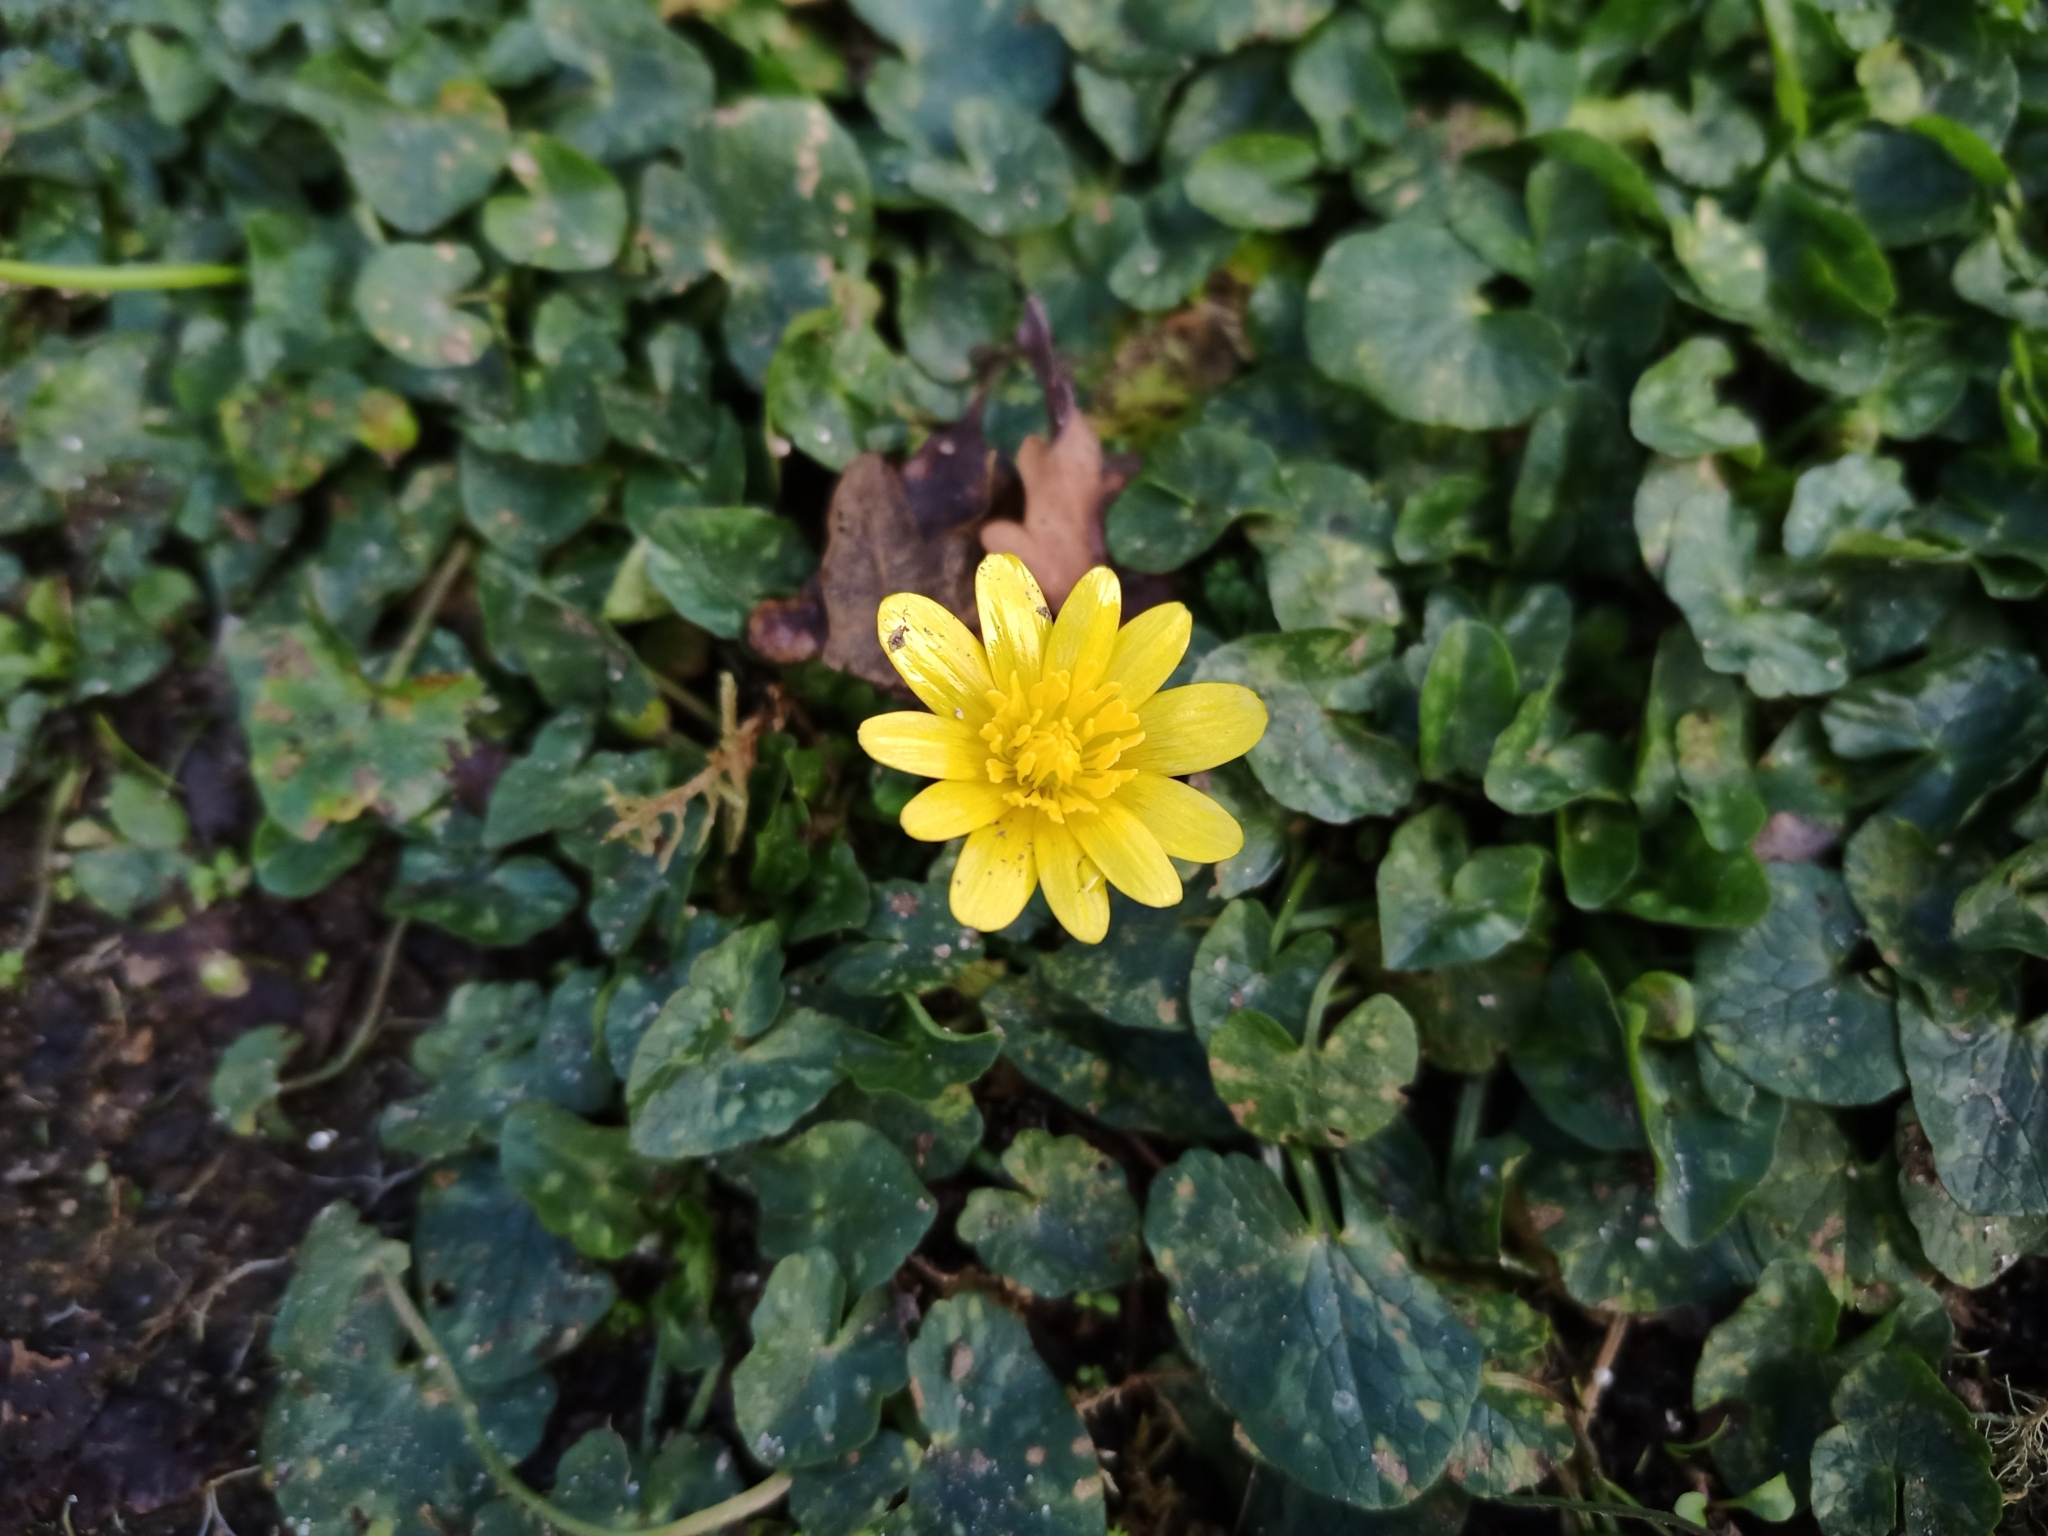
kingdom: Plantae
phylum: Tracheophyta
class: Magnoliopsida
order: Ranunculales
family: Ranunculaceae
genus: Ficaria
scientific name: Ficaria verna
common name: Lesser celandine
